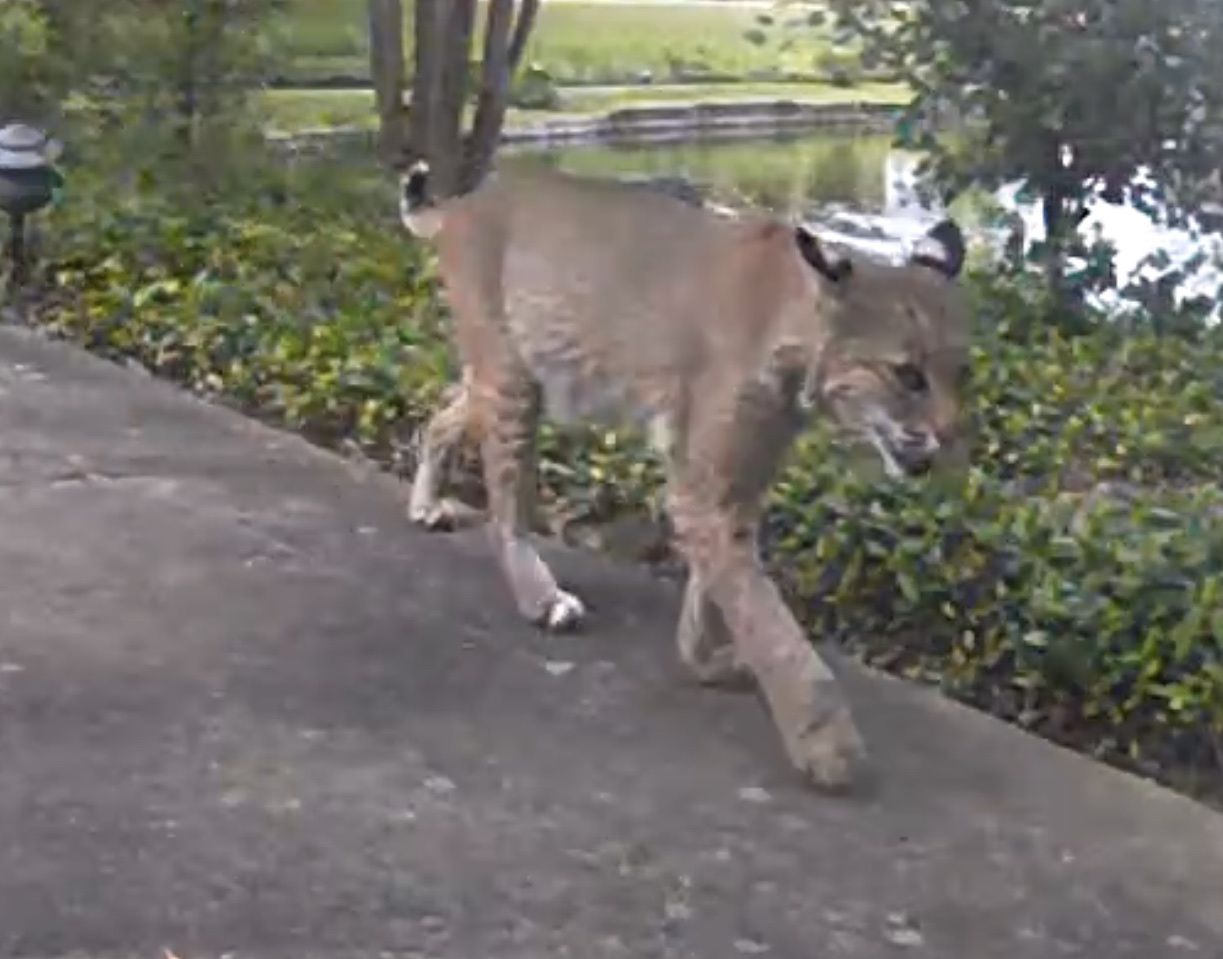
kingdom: Animalia
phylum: Chordata
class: Mammalia
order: Carnivora
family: Felidae
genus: Lynx
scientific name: Lynx rufus
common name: Bobcat
